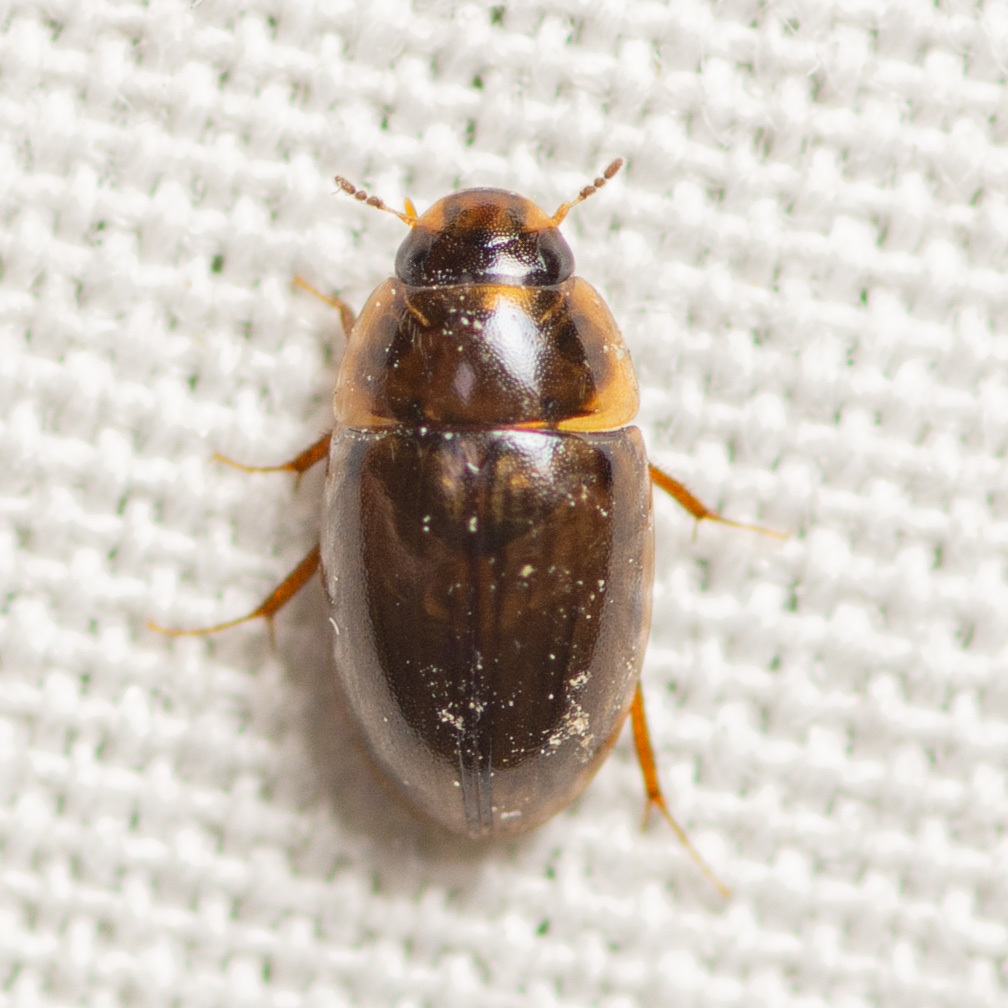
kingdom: Animalia
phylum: Arthropoda
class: Insecta
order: Coleoptera
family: Hydrophilidae
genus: Enochrus
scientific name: Enochrus
